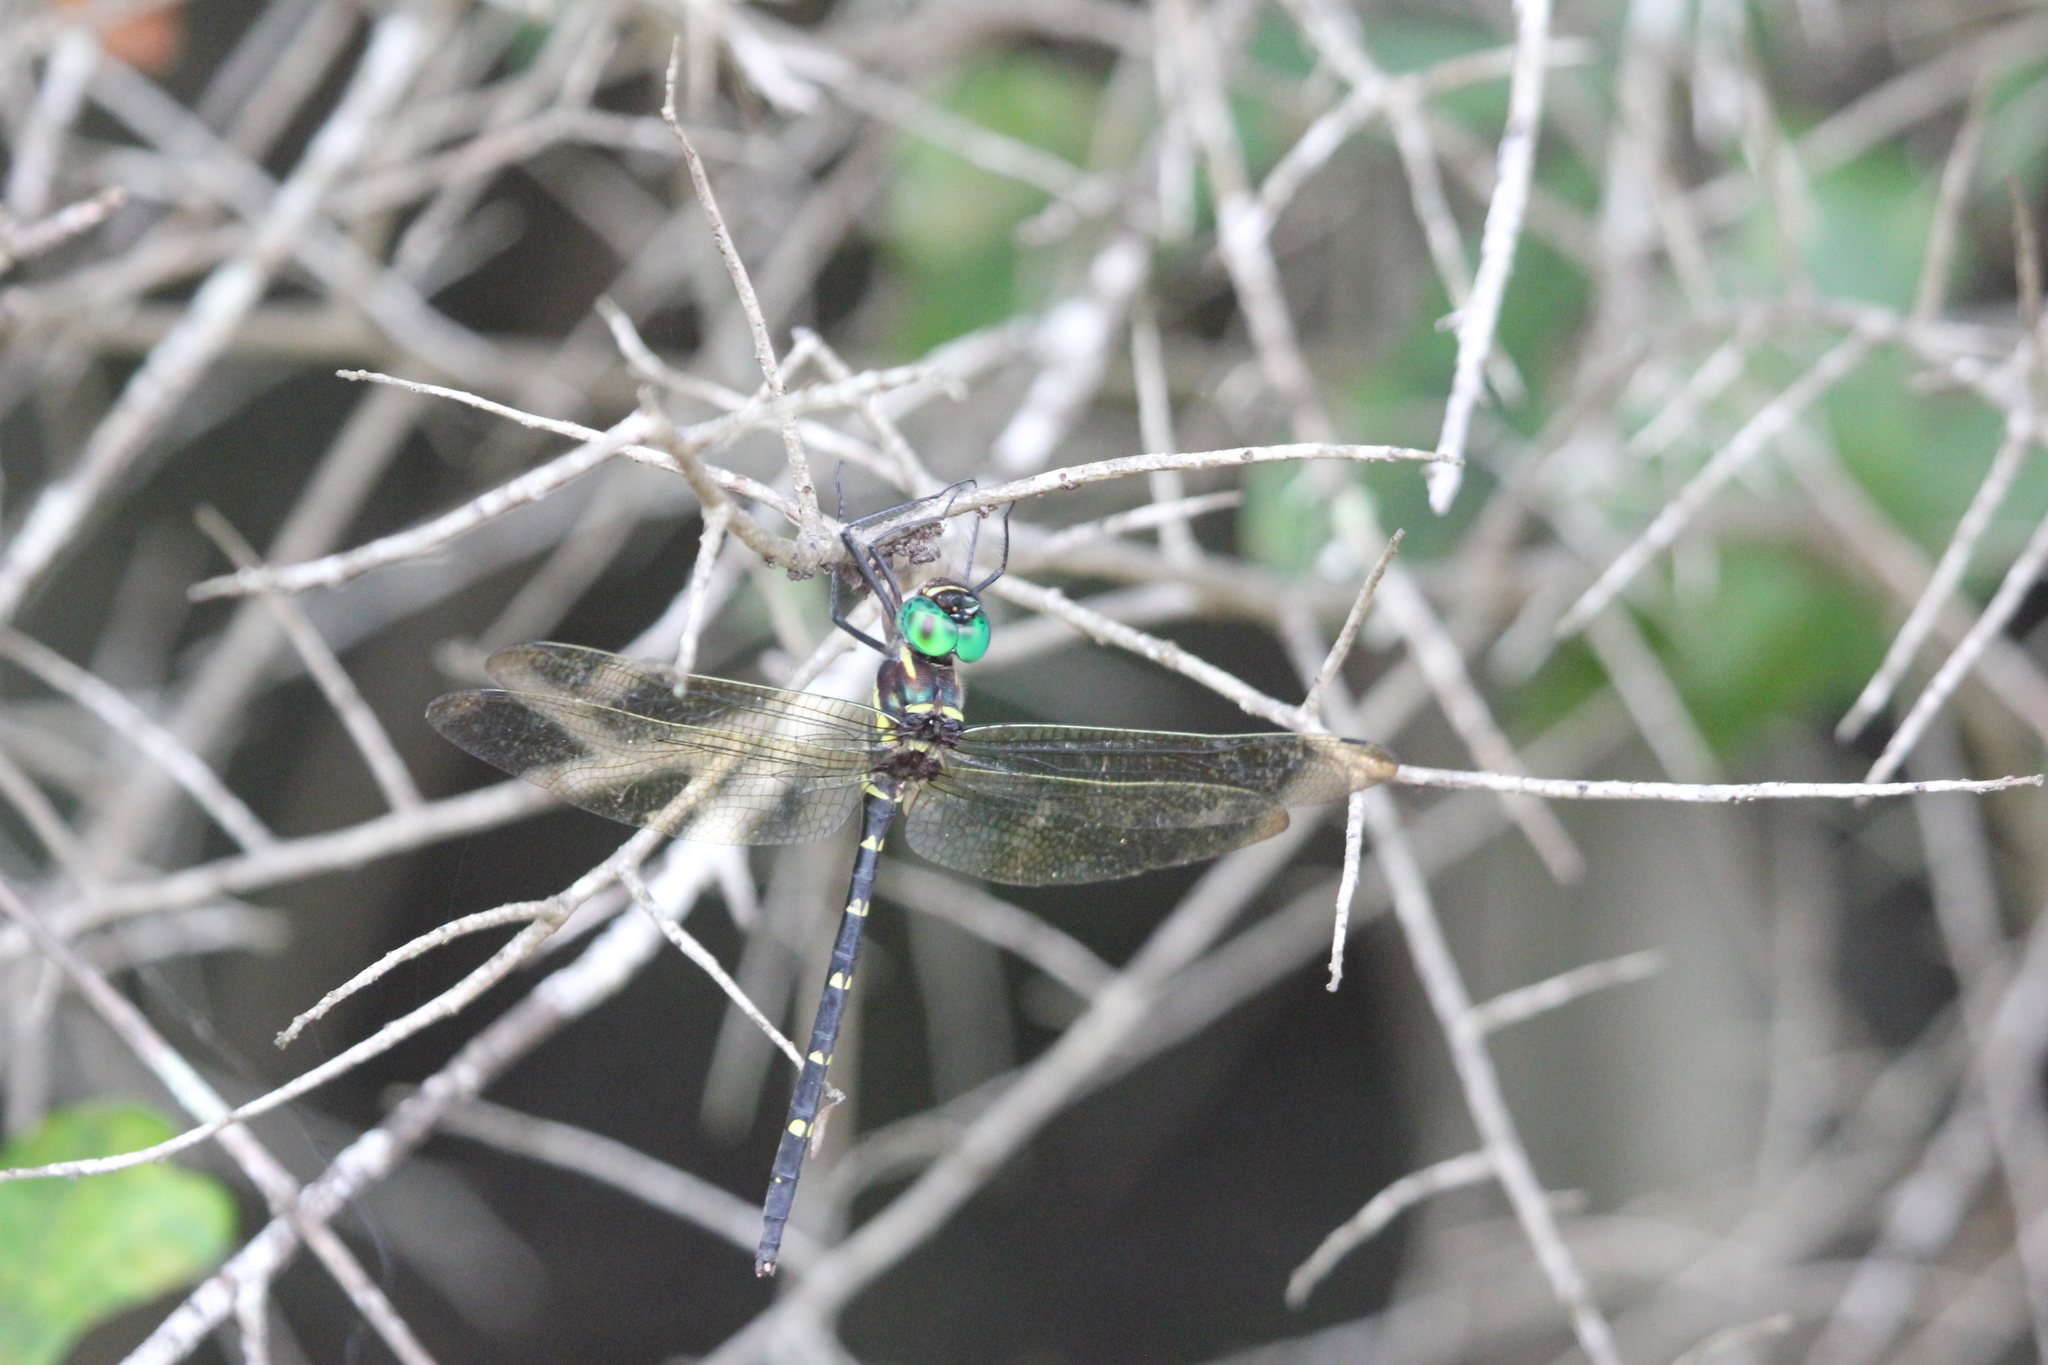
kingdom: Animalia
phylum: Arthropoda
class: Insecta
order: Odonata
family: Macromiidae
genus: Macromia
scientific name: Macromia taeniolata
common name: Royal river cruiser
